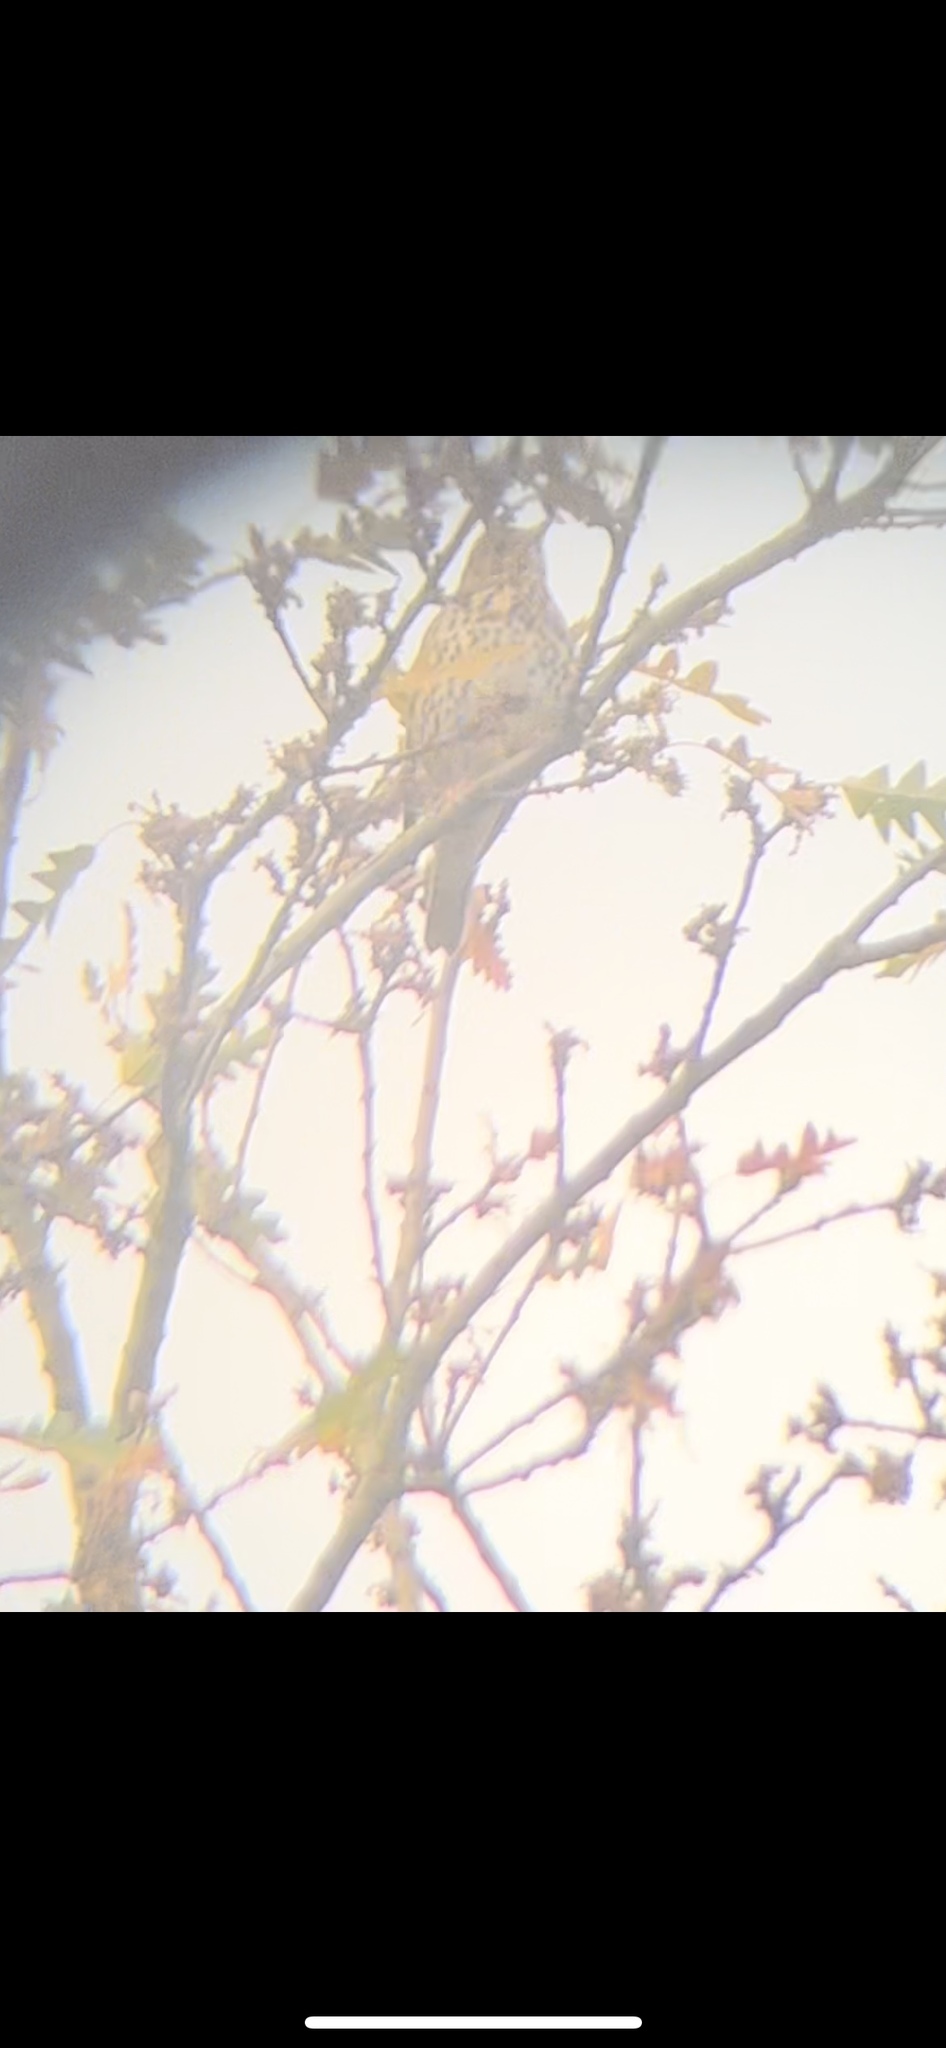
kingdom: Animalia
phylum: Chordata
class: Aves
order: Passeriformes
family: Turdidae
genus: Turdus
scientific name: Turdus philomelos
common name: Song thrush
